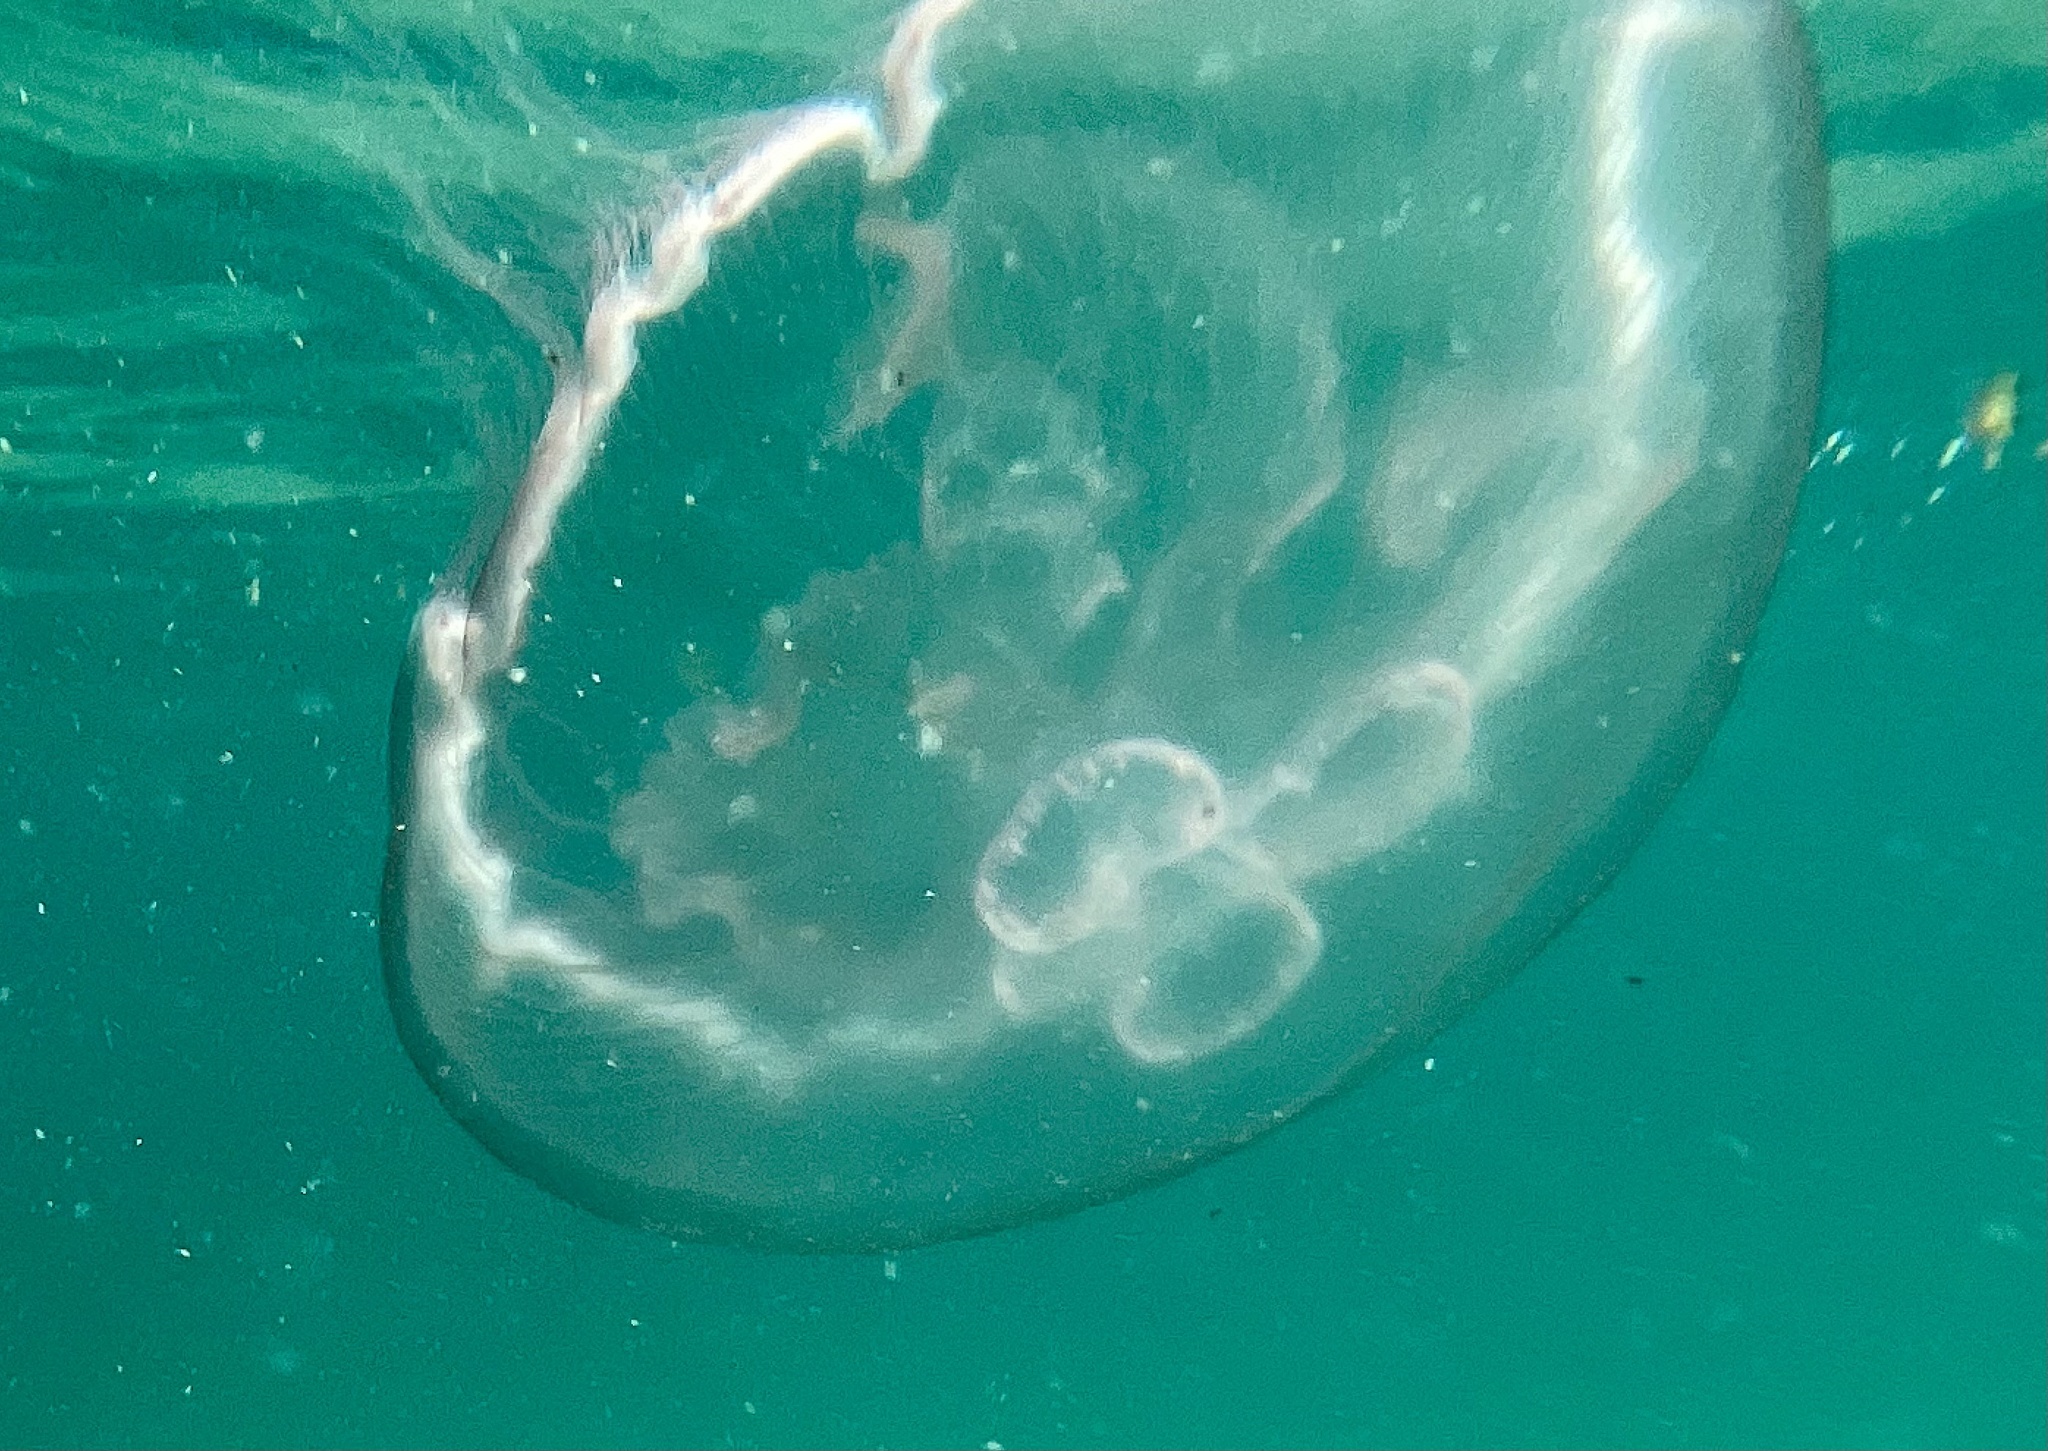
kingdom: Animalia
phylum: Cnidaria
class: Scyphozoa
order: Semaeostomeae
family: Ulmaridae
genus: Aurelia
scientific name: Aurelia marginalis
